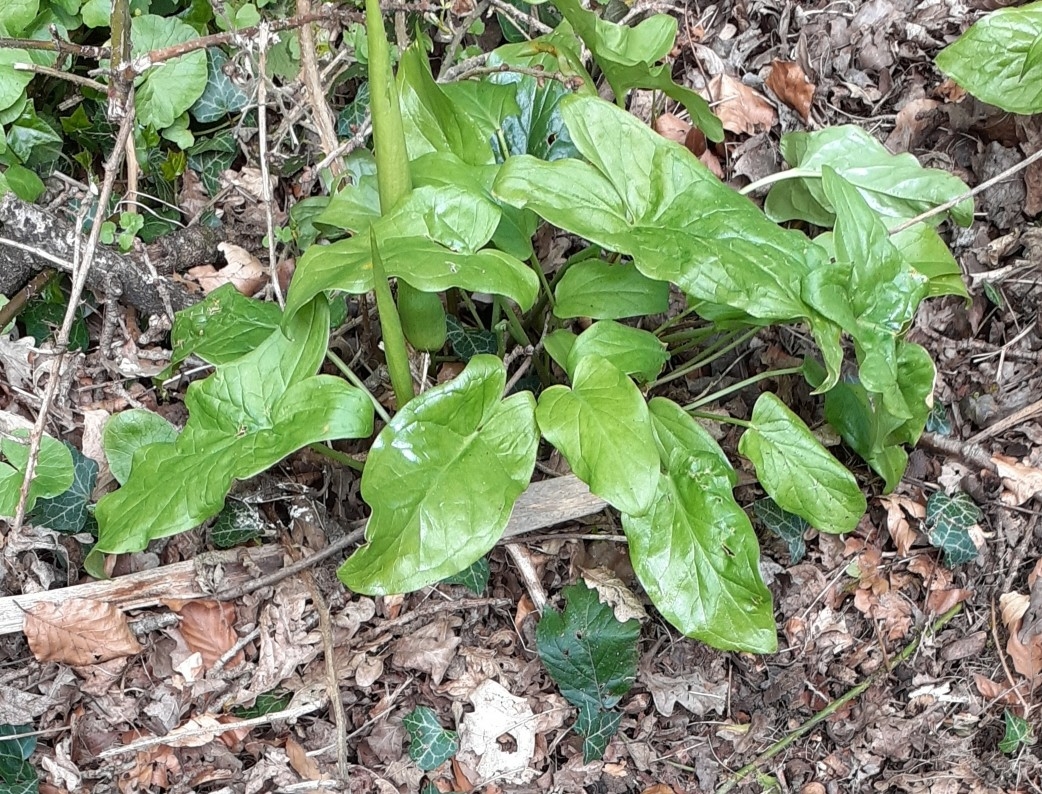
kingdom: Plantae
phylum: Tracheophyta
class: Liliopsida
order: Alismatales
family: Araceae
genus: Arum
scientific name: Arum maculatum
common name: Lords-and-ladies
